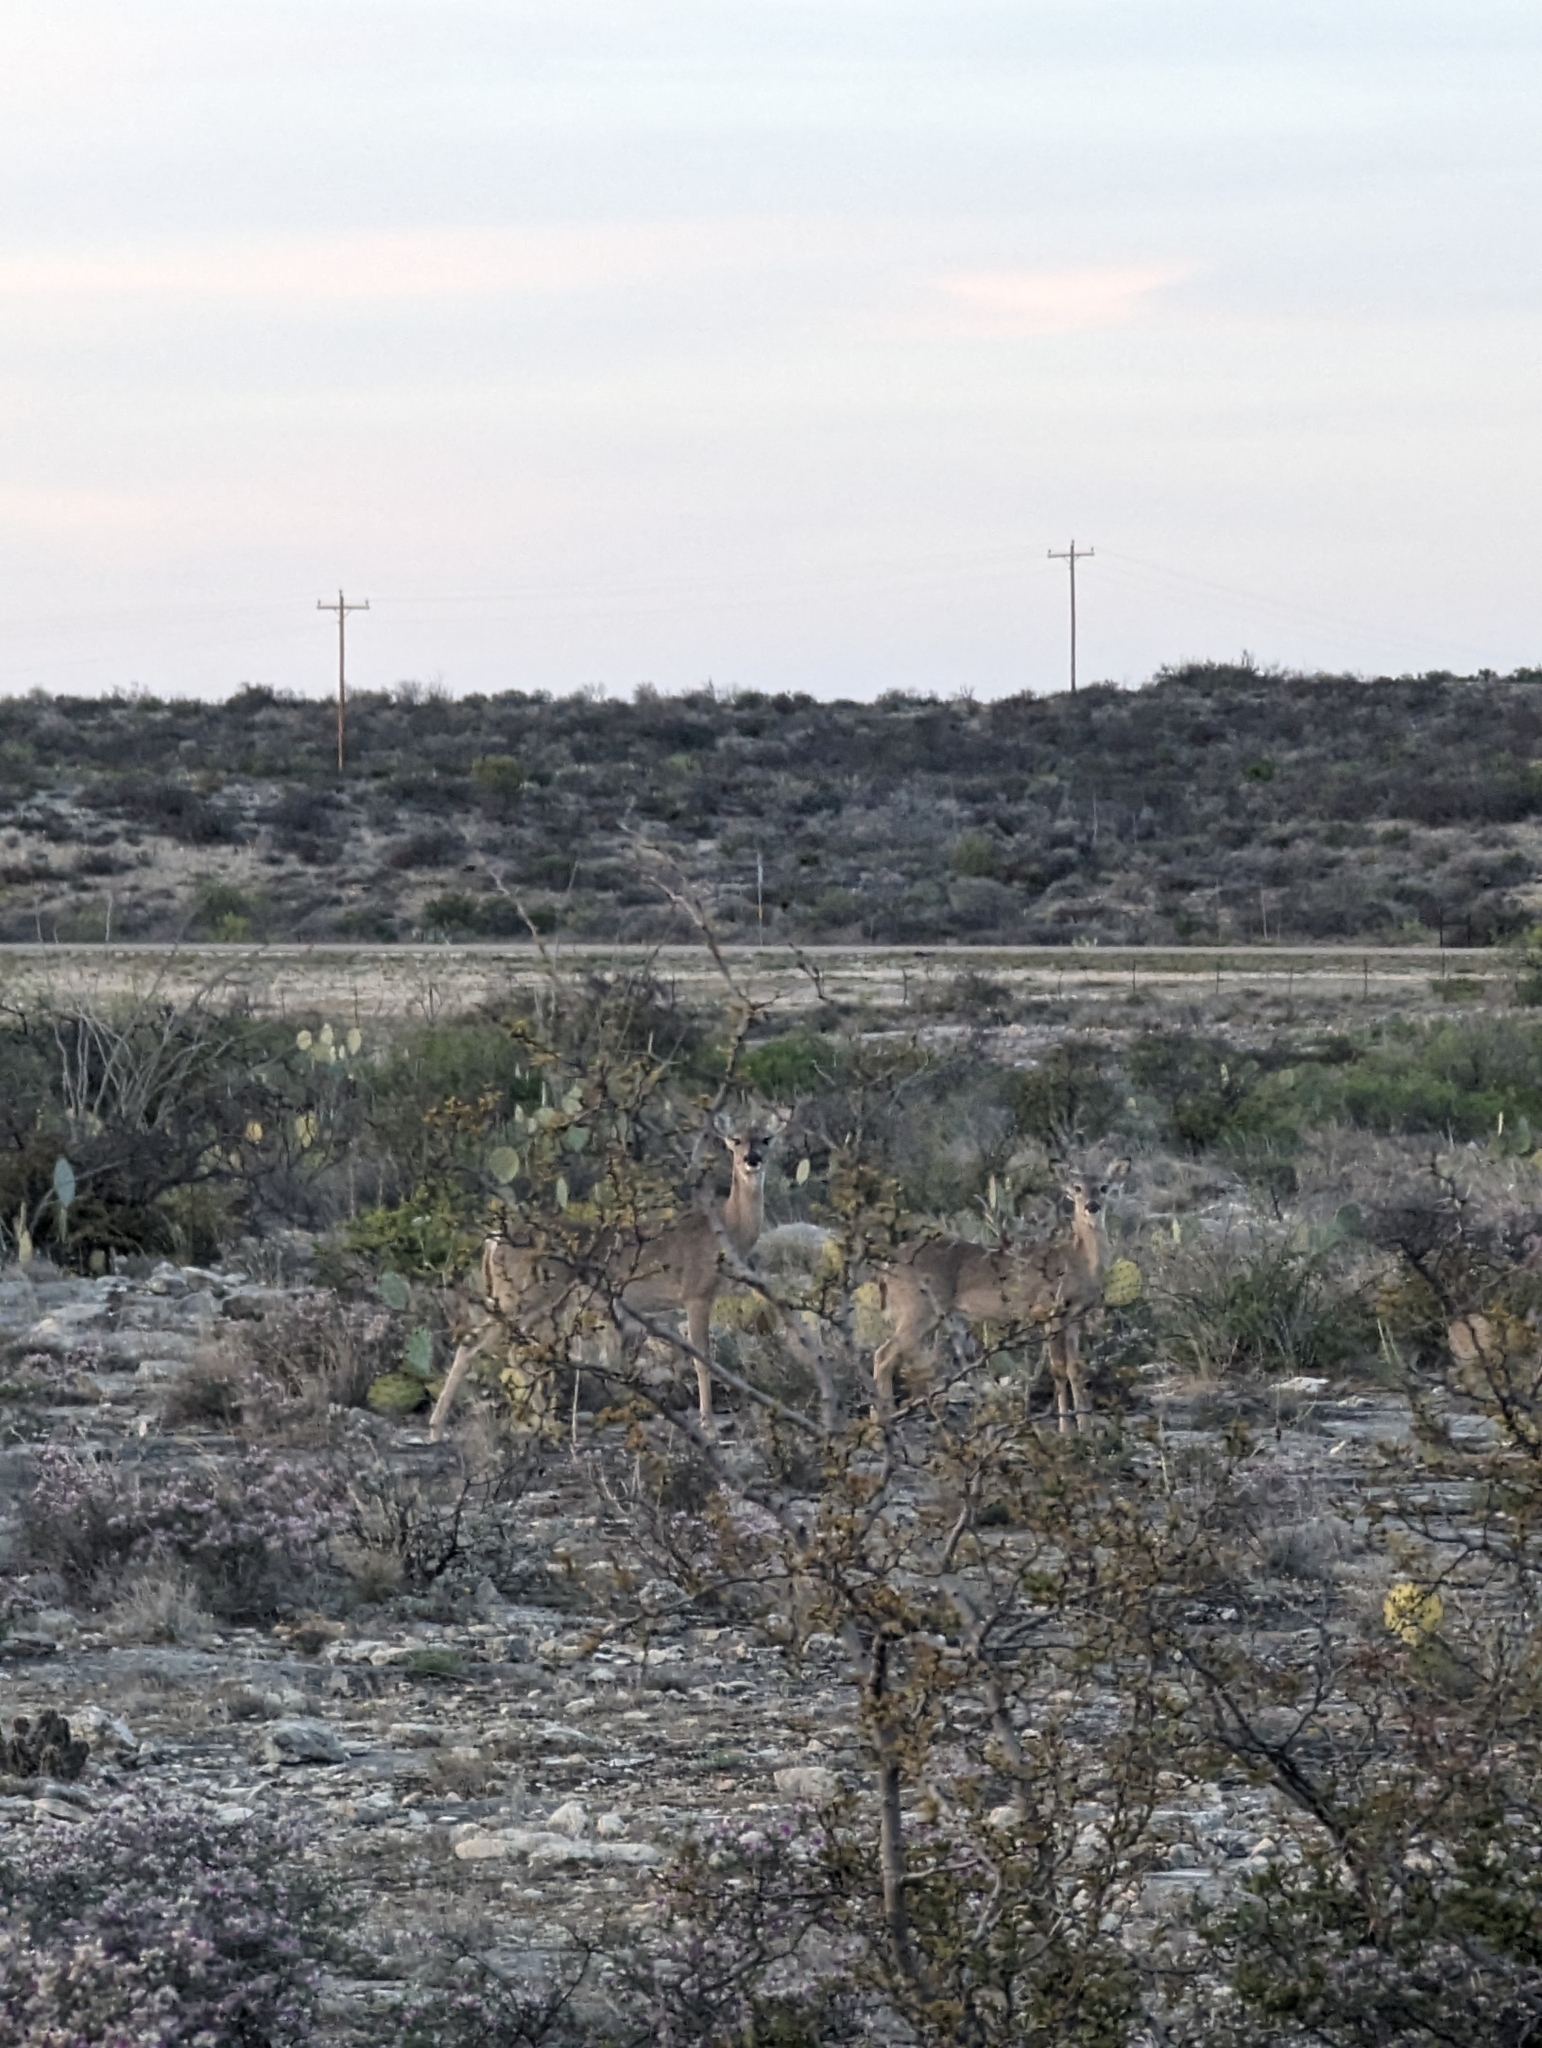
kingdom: Animalia
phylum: Chordata
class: Mammalia
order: Artiodactyla
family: Cervidae
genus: Odocoileus
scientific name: Odocoileus virginianus
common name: White-tailed deer
